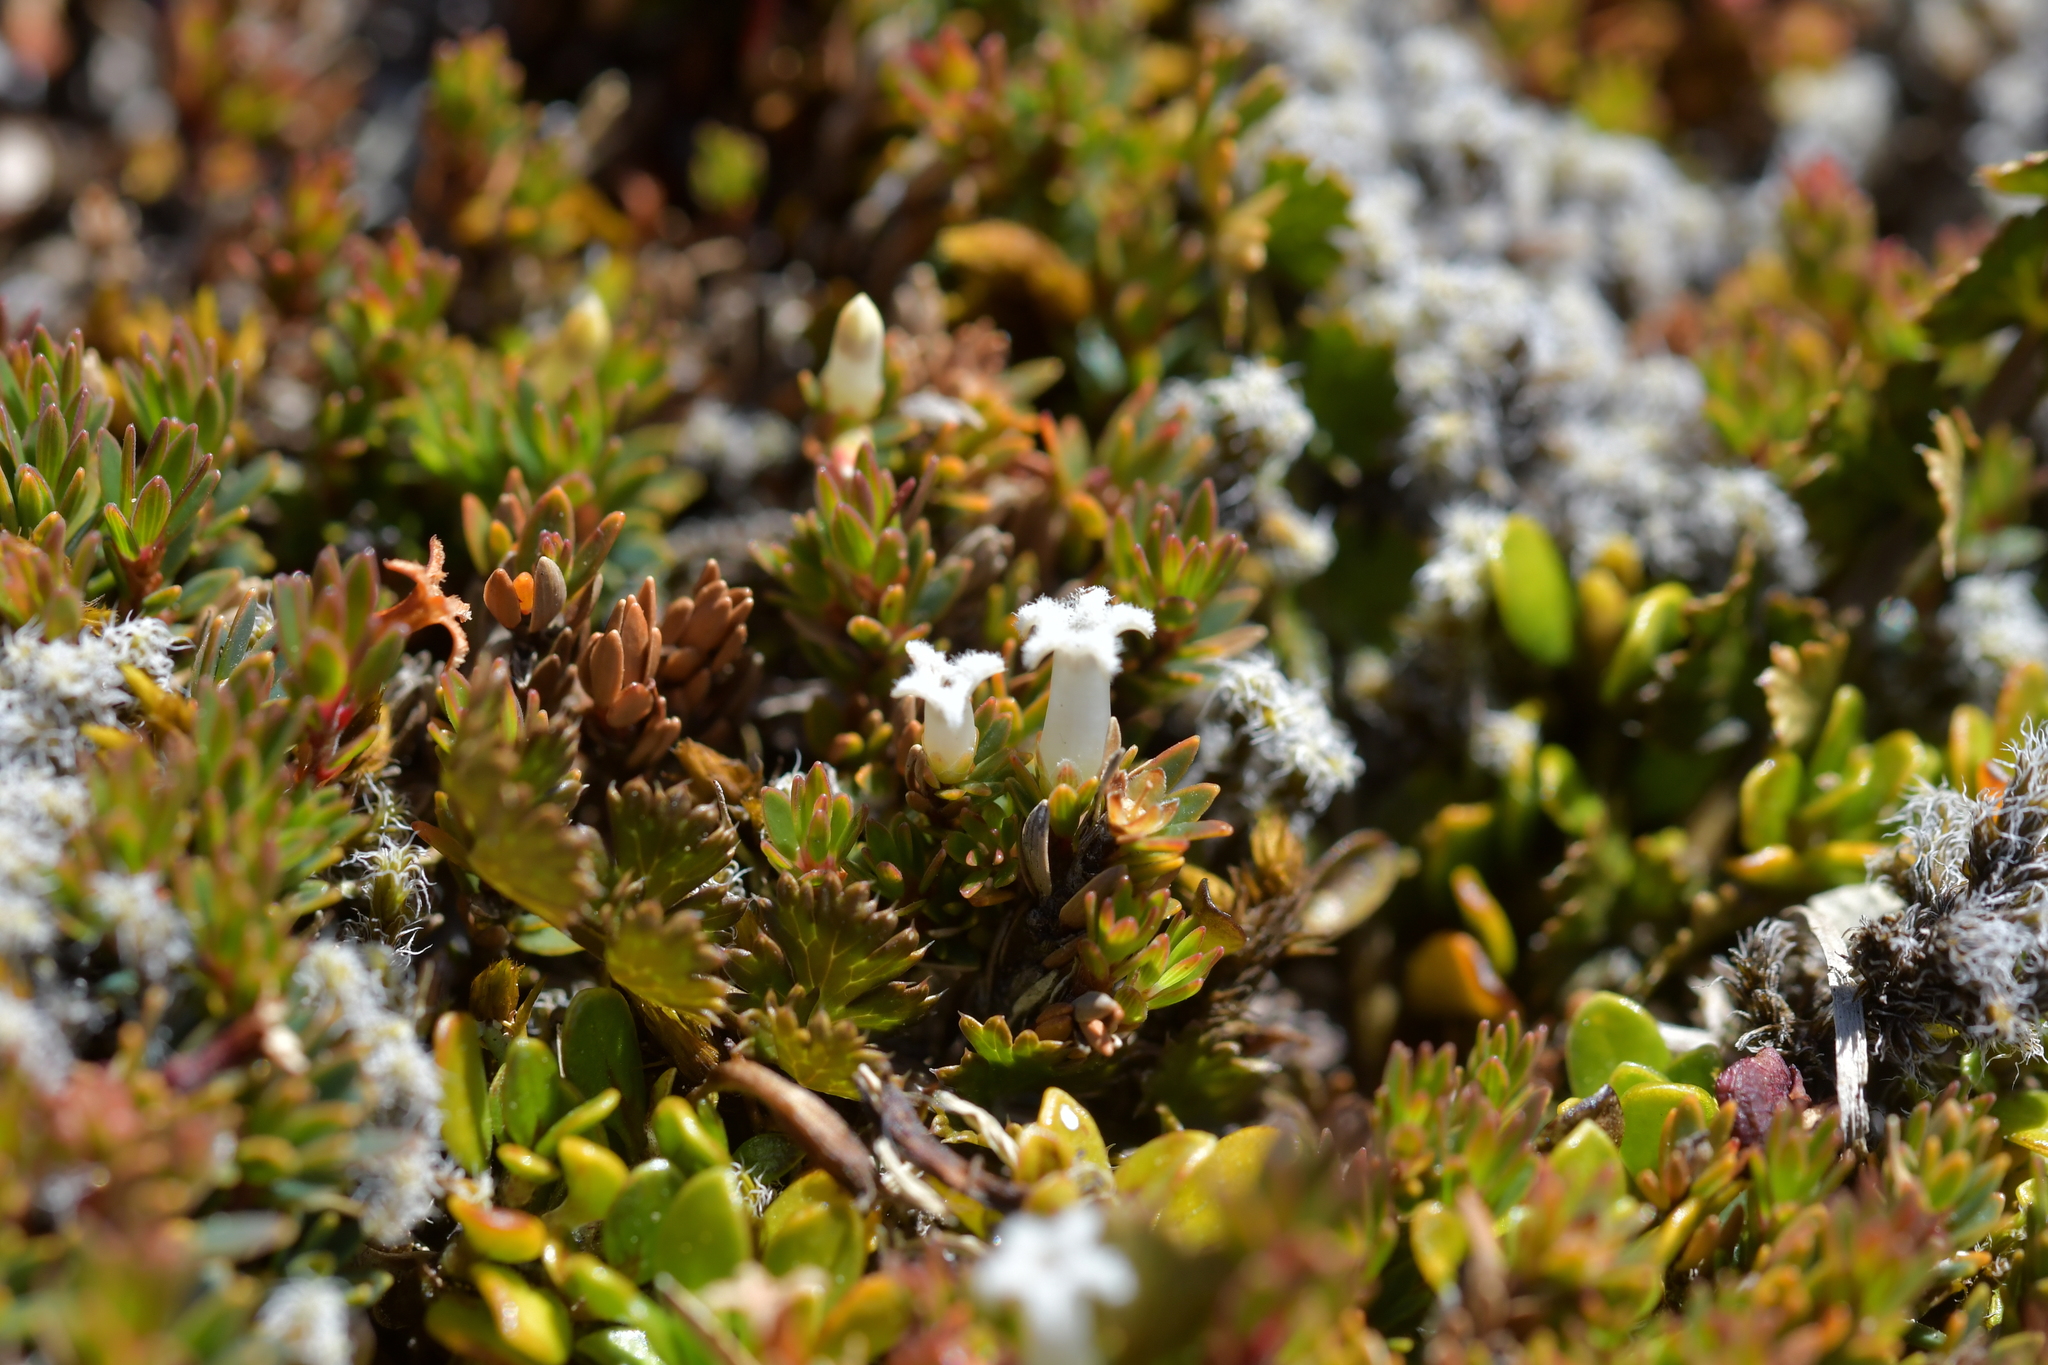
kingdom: Plantae
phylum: Tracheophyta
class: Magnoliopsida
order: Ericales
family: Ericaceae
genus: Pentachondra
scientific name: Pentachondra pumila
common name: Carpet-heath
